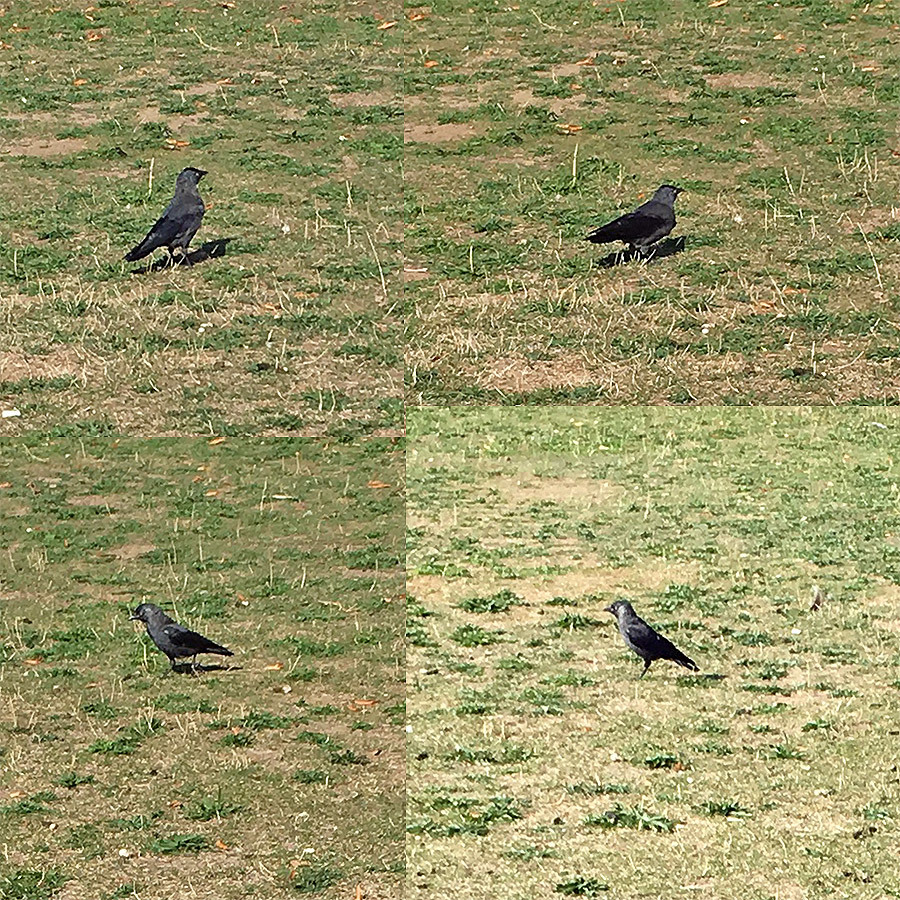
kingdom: Animalia
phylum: Chordata
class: Aves
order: Passeriformes
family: Corvidae
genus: Coloeus
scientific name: Coloeus monedula
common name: Western jackdaw
